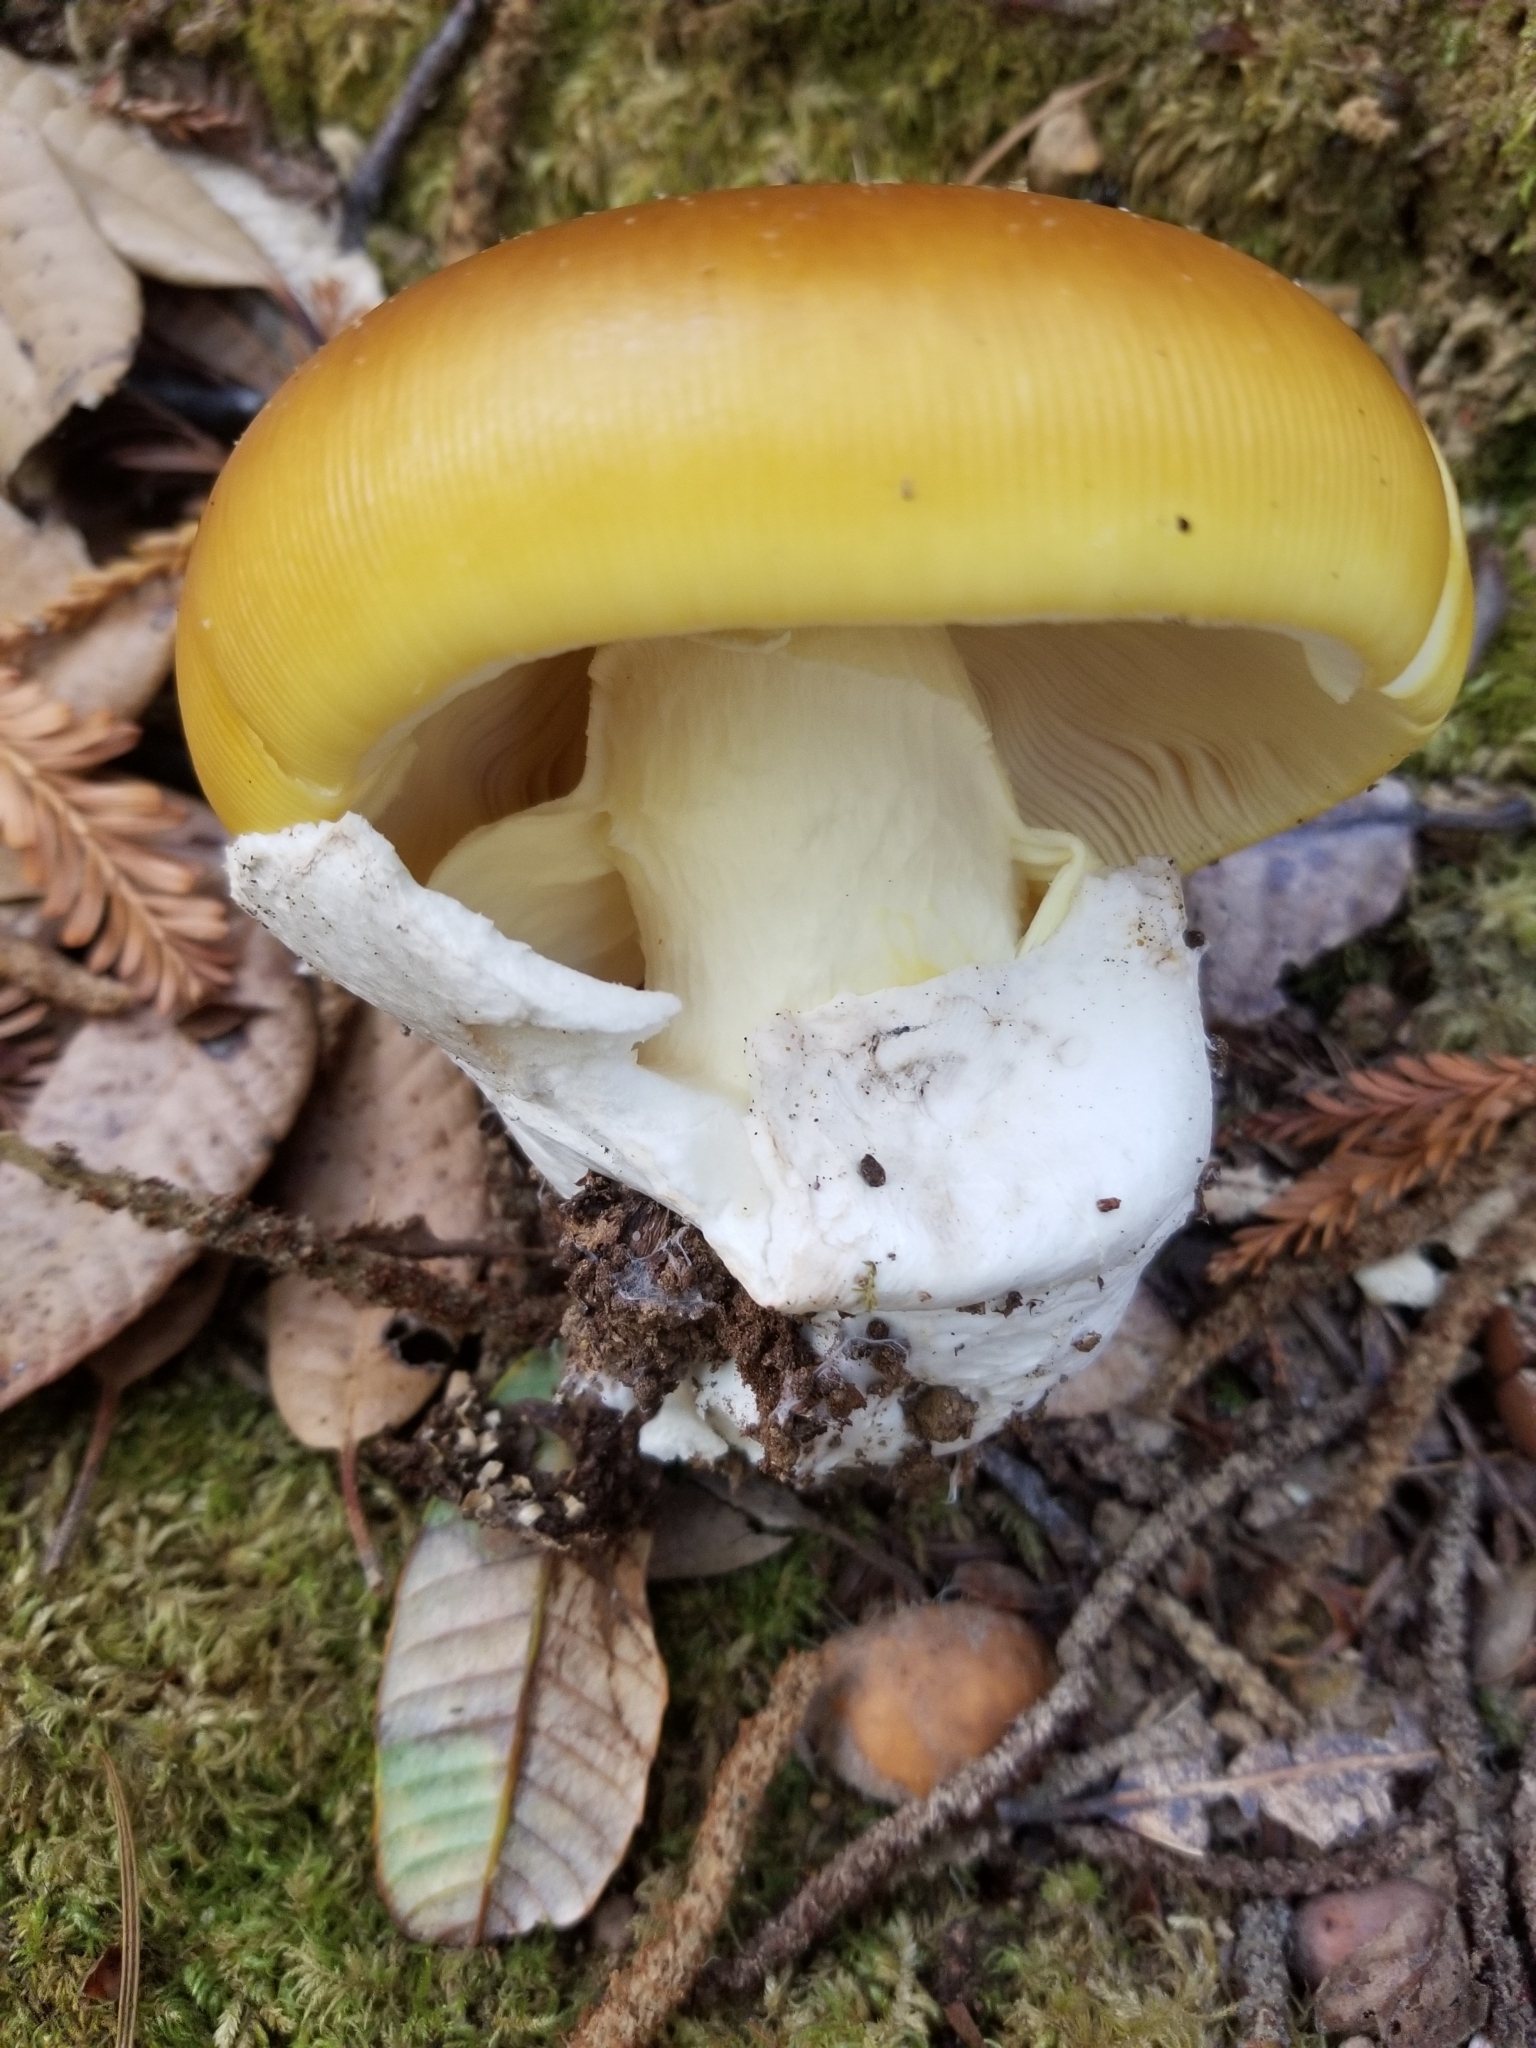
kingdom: Fungi
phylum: Basidiomycota
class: Agaricomycetes
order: Agaricales
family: Amanitaceae
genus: Amanita
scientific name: Amanita calyptroderma
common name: Coccora
